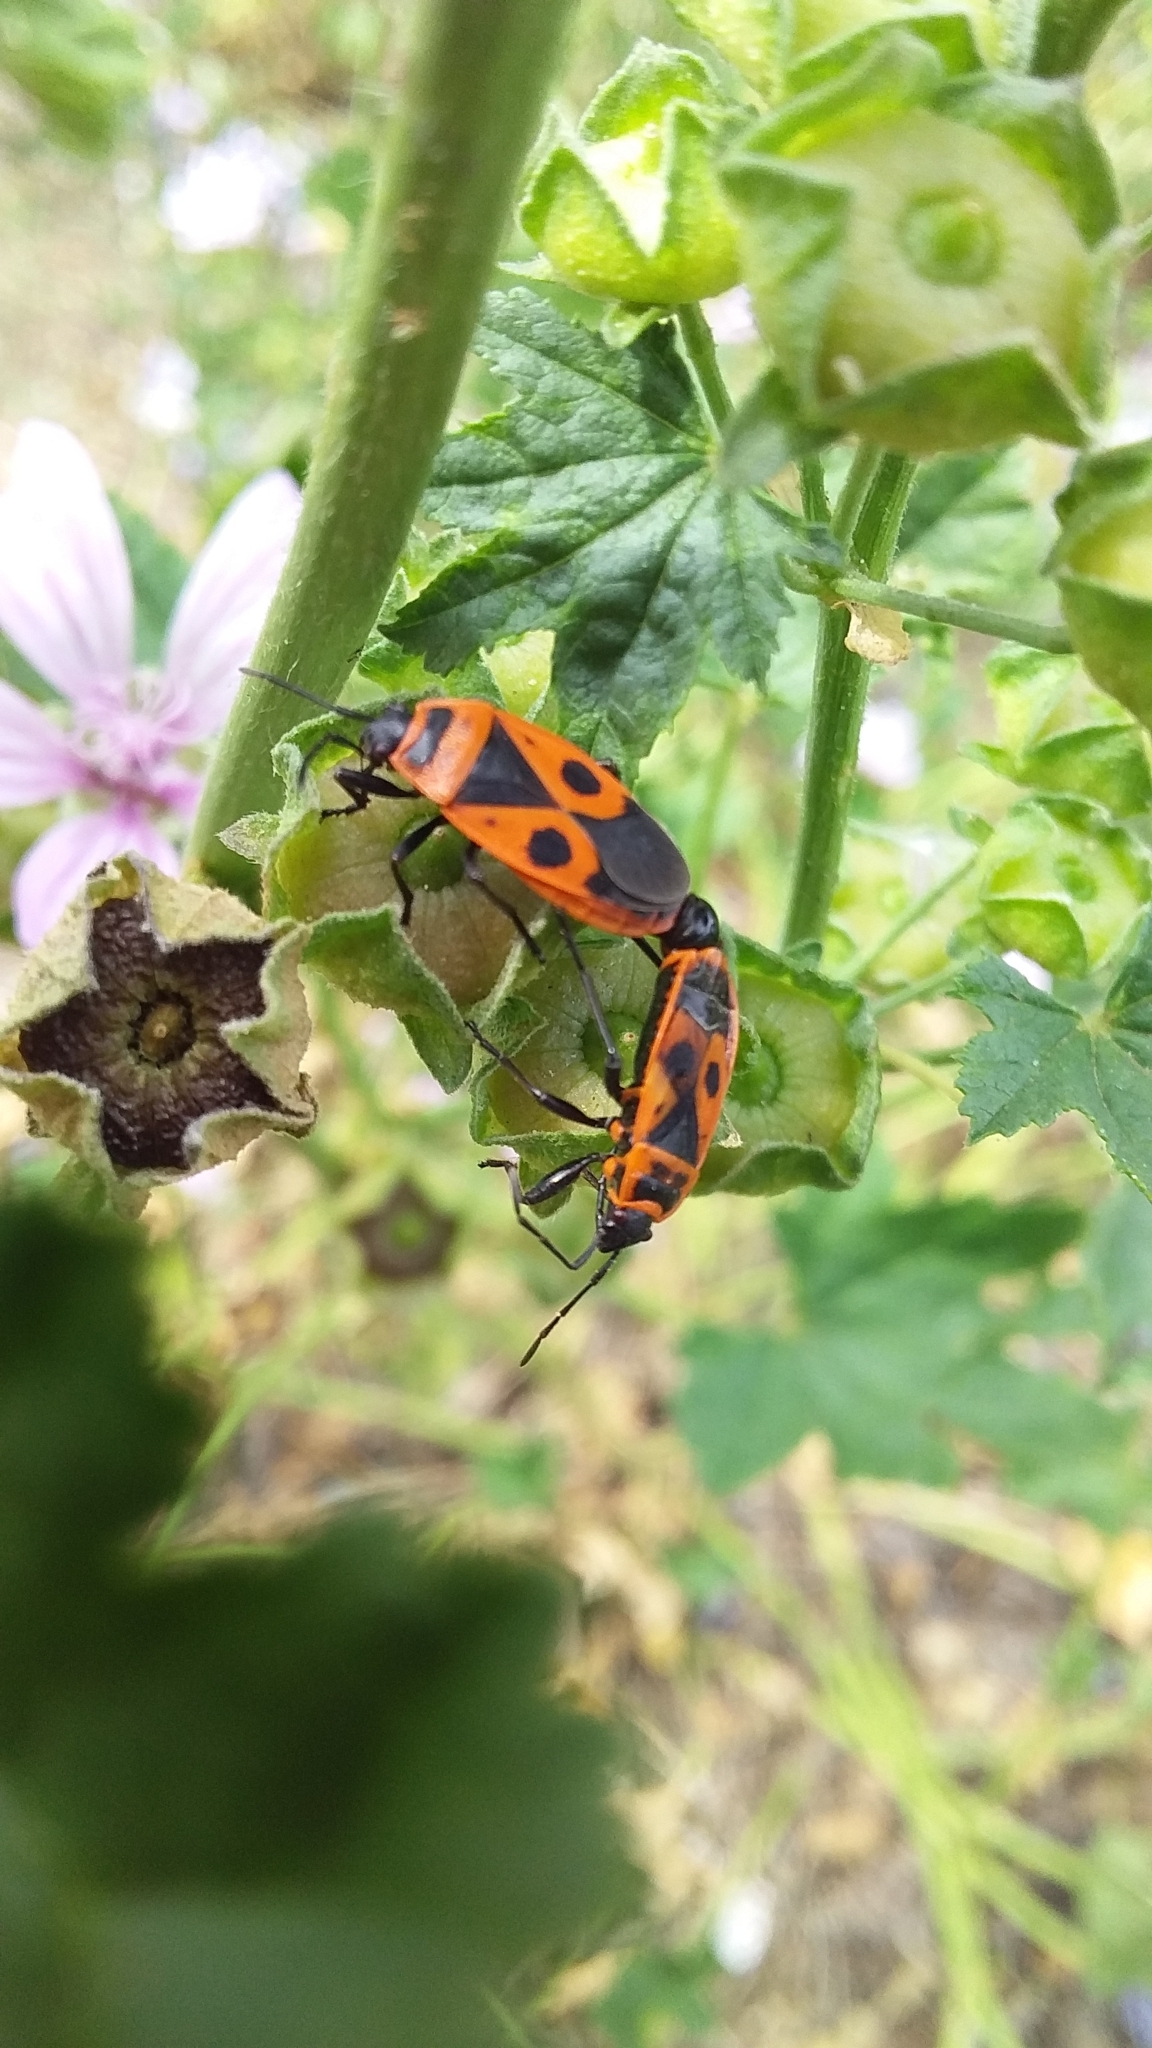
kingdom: Animalia
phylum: Arthropoda
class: Insecta
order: Hemiptera
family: Pyrrhocoridae
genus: Pyrrhocoris
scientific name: Pyrrhocoris apterus
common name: Firebug
